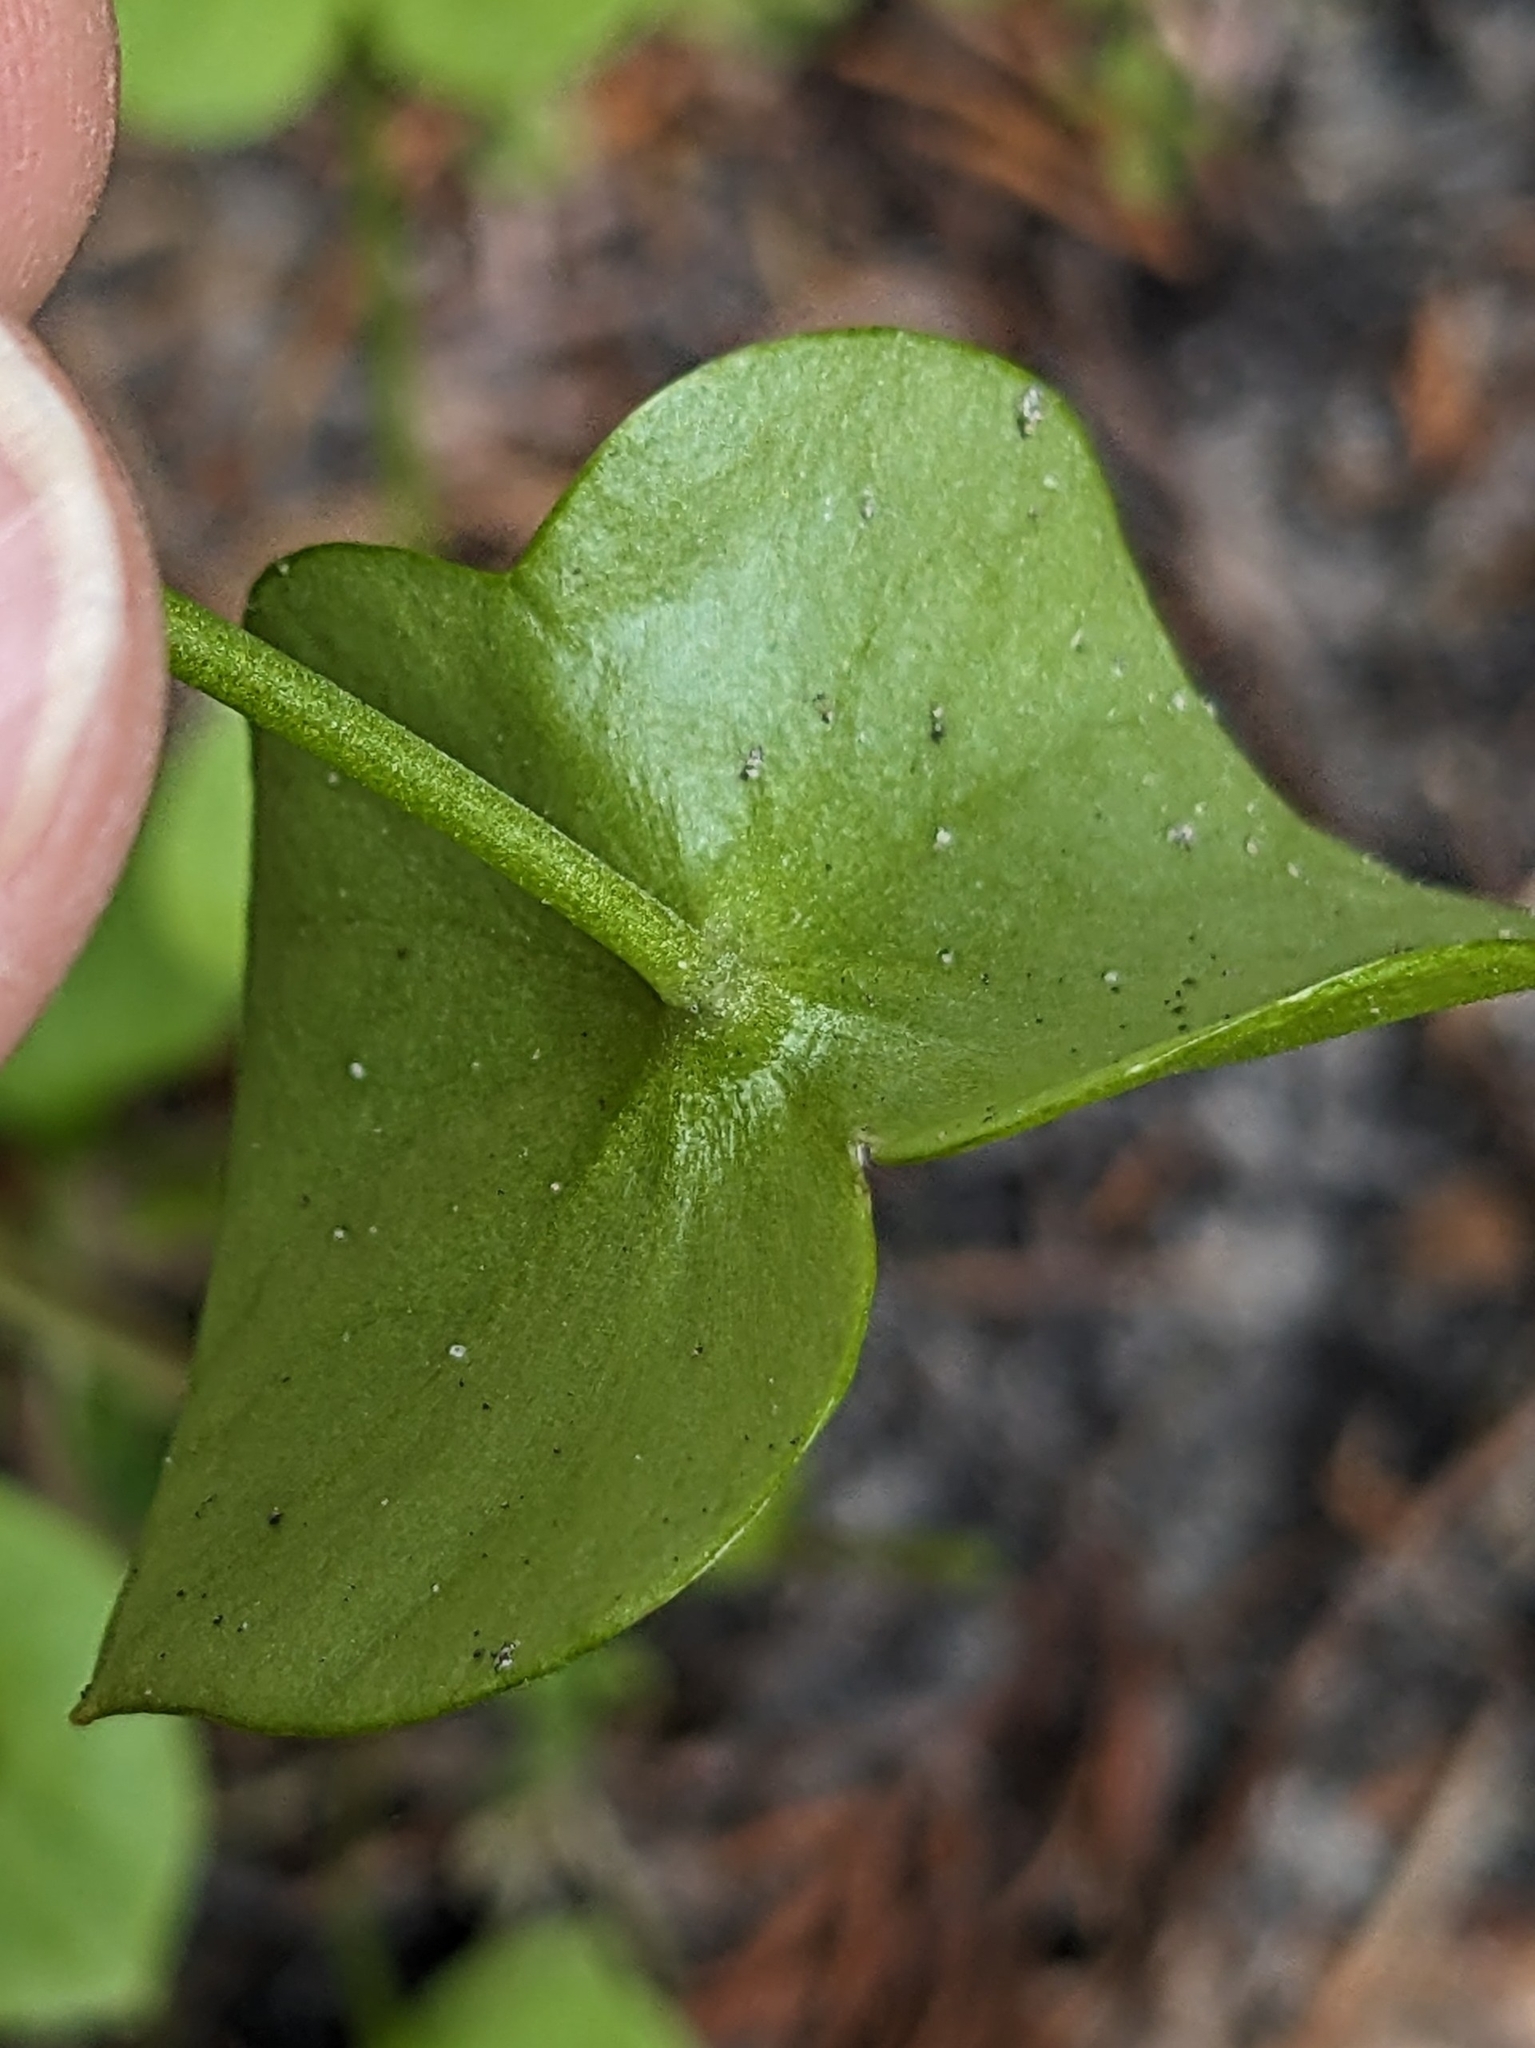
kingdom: Plantae
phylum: Tracheophyta
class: Magnoliopsida
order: Caryophyllales
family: Montiaceae
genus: Claytonia
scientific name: Claytonia perfoliata
